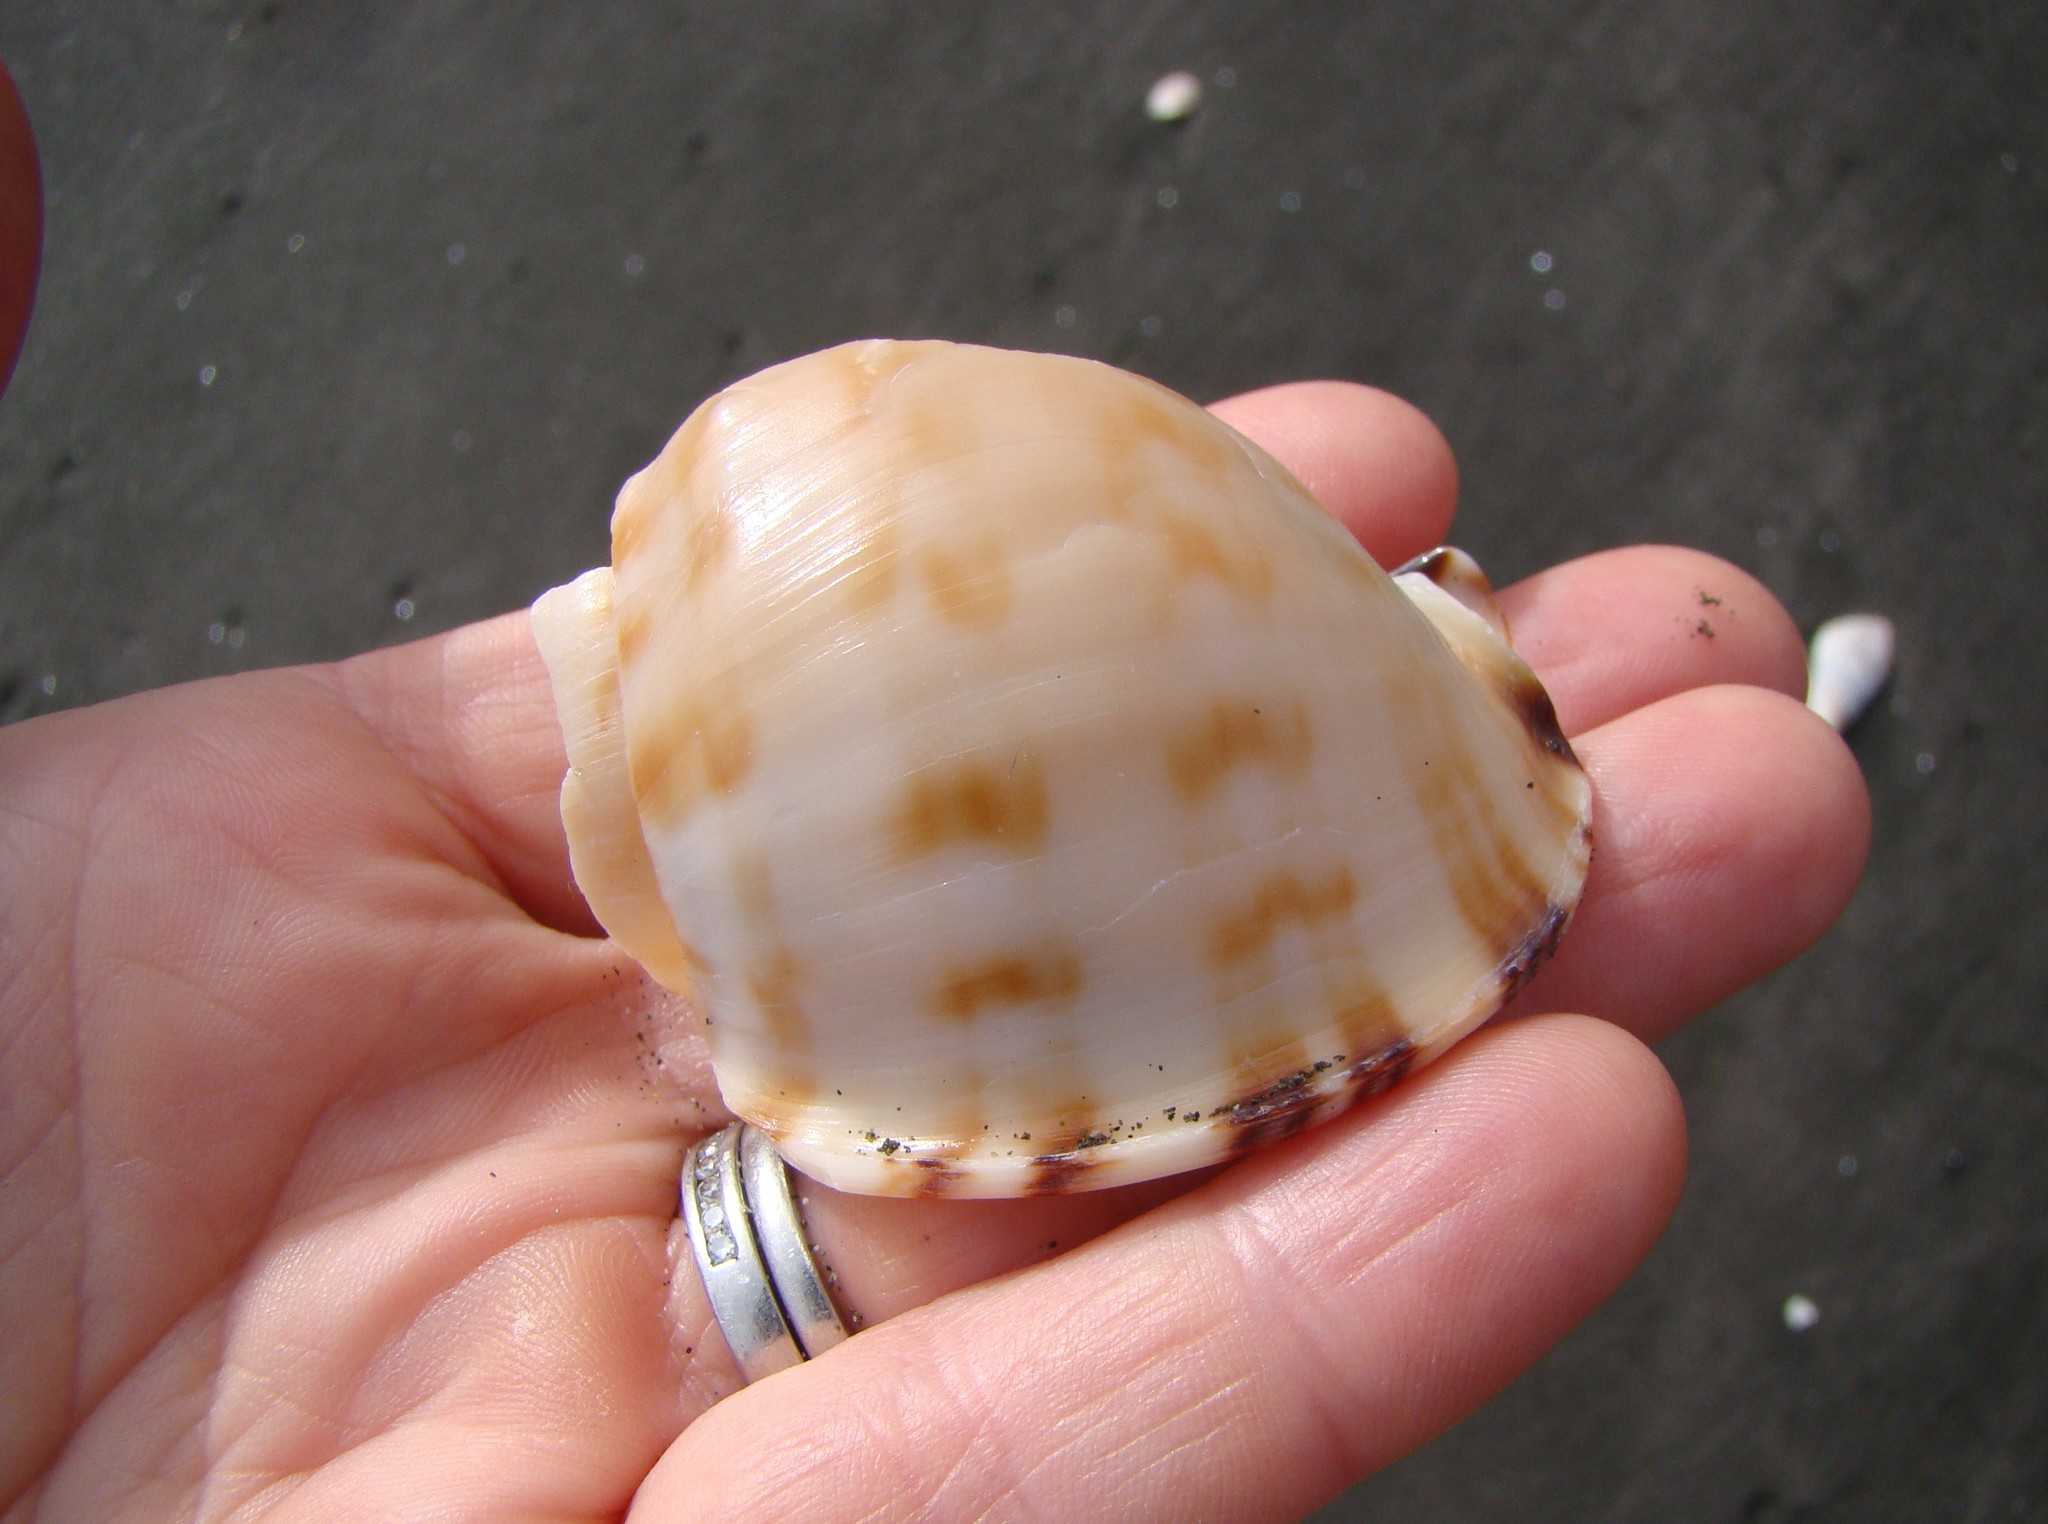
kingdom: Animalia
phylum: Mollusca
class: Gastropoda
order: Littorinimorpha
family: Cassidae
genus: Semicassis
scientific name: Semicassis pyrum
